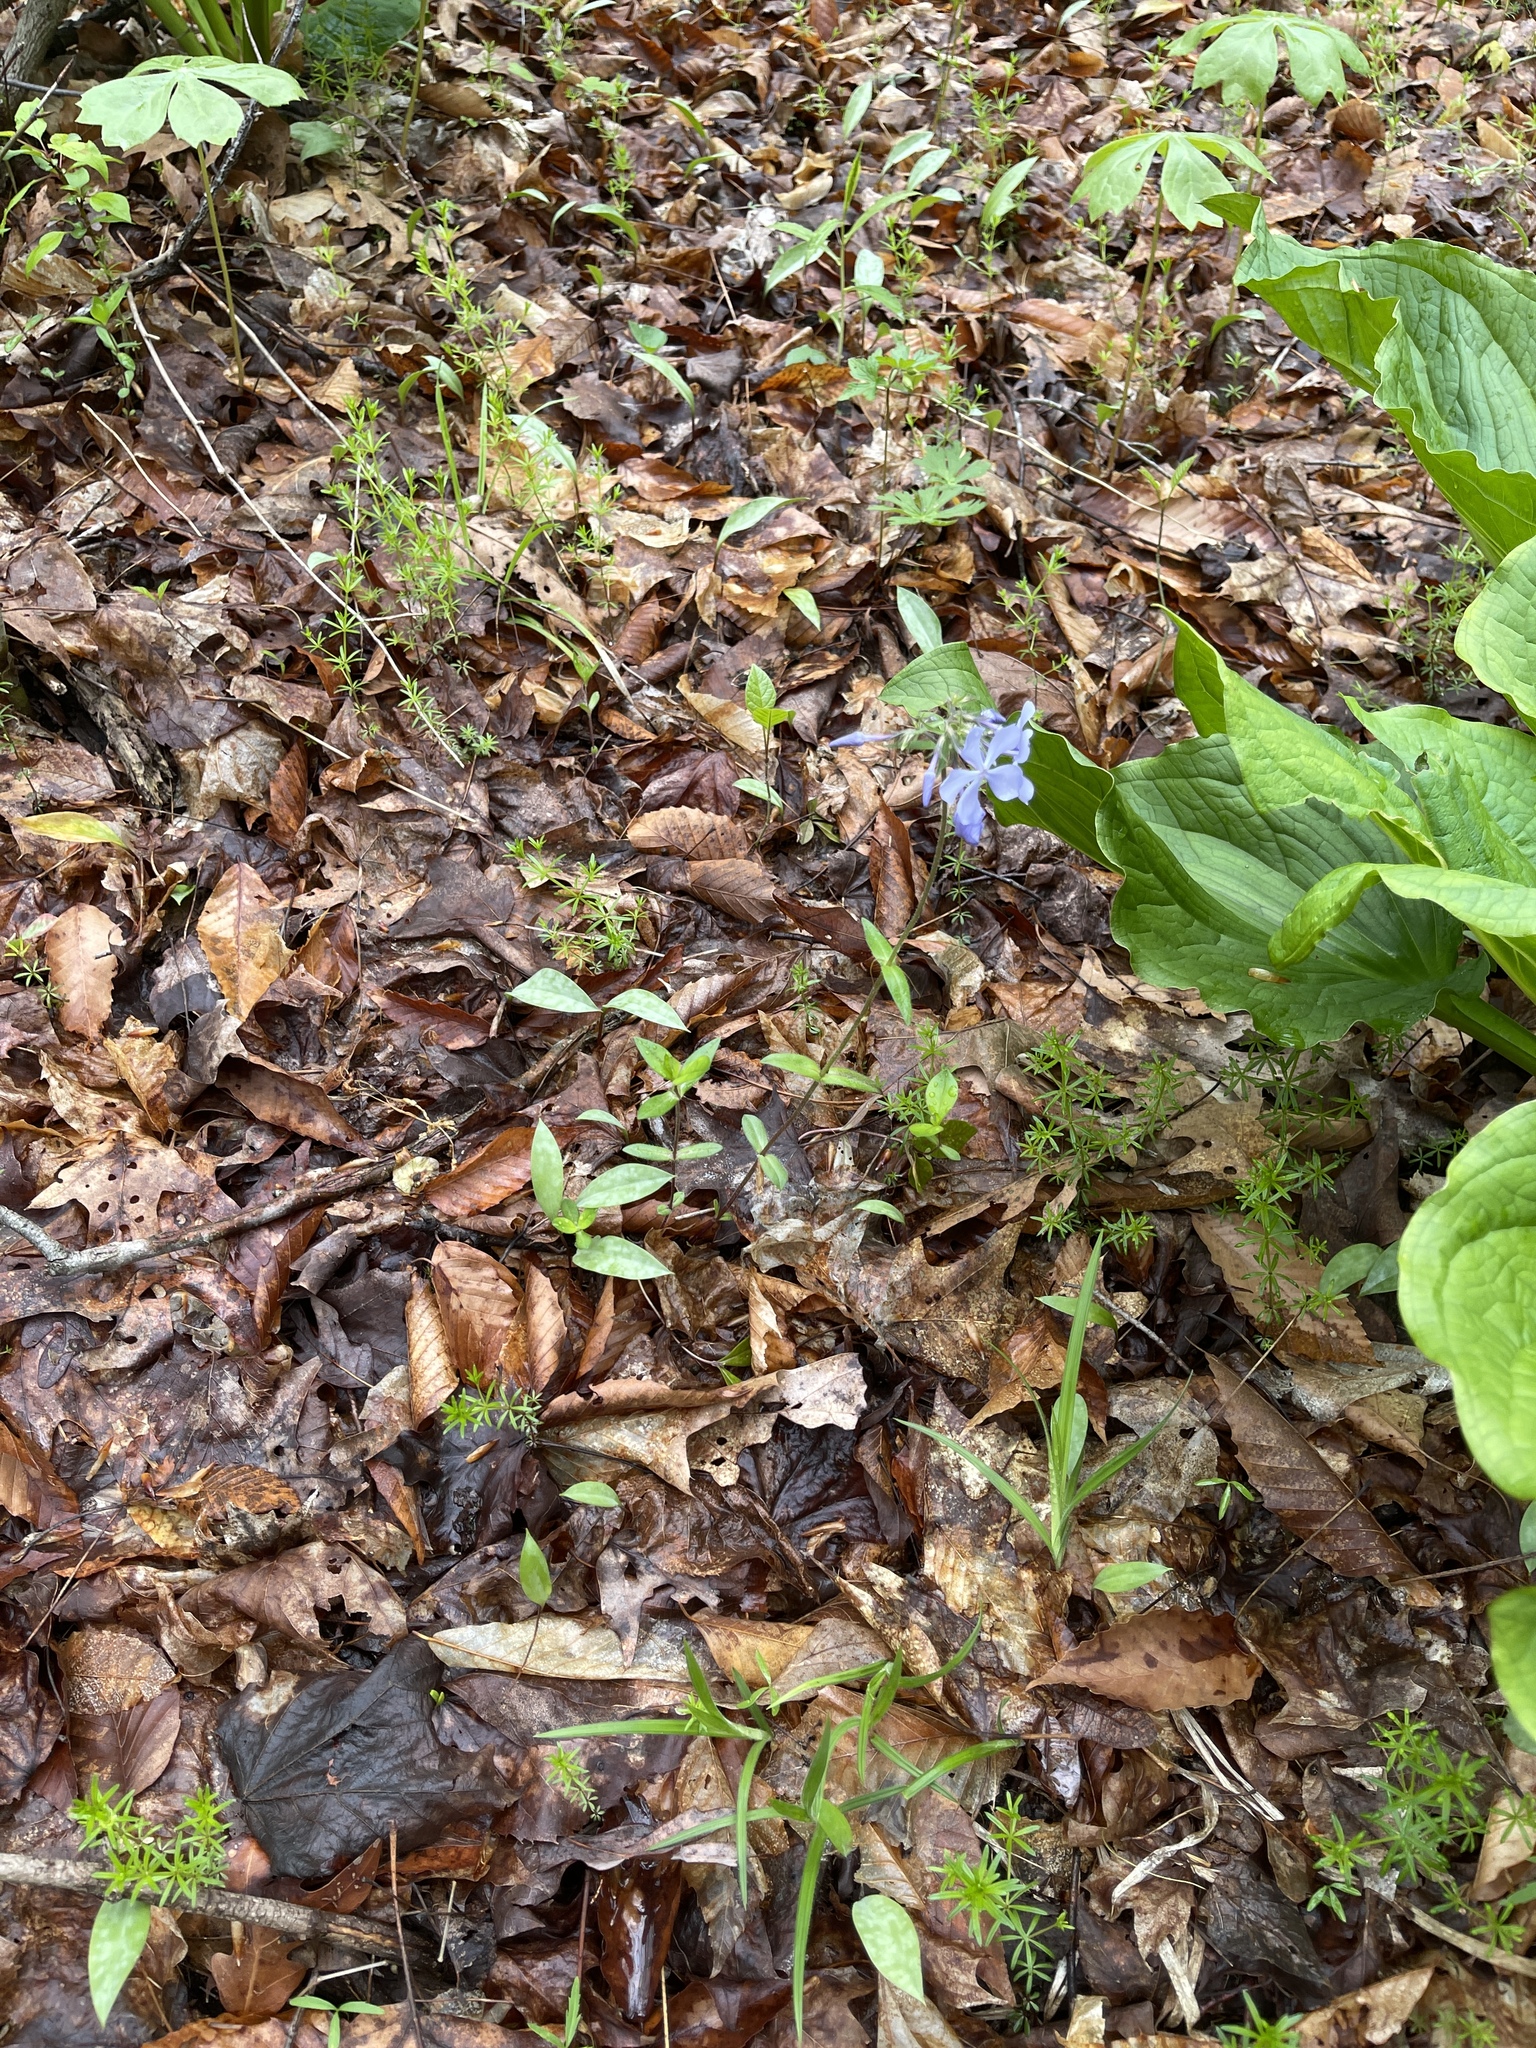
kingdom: Plantae
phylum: Tracheophyta
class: Magnoliopsida
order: Ericales
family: Polemoniaceae
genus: Phlox
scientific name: Phlox divaricata
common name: Blue phlox
